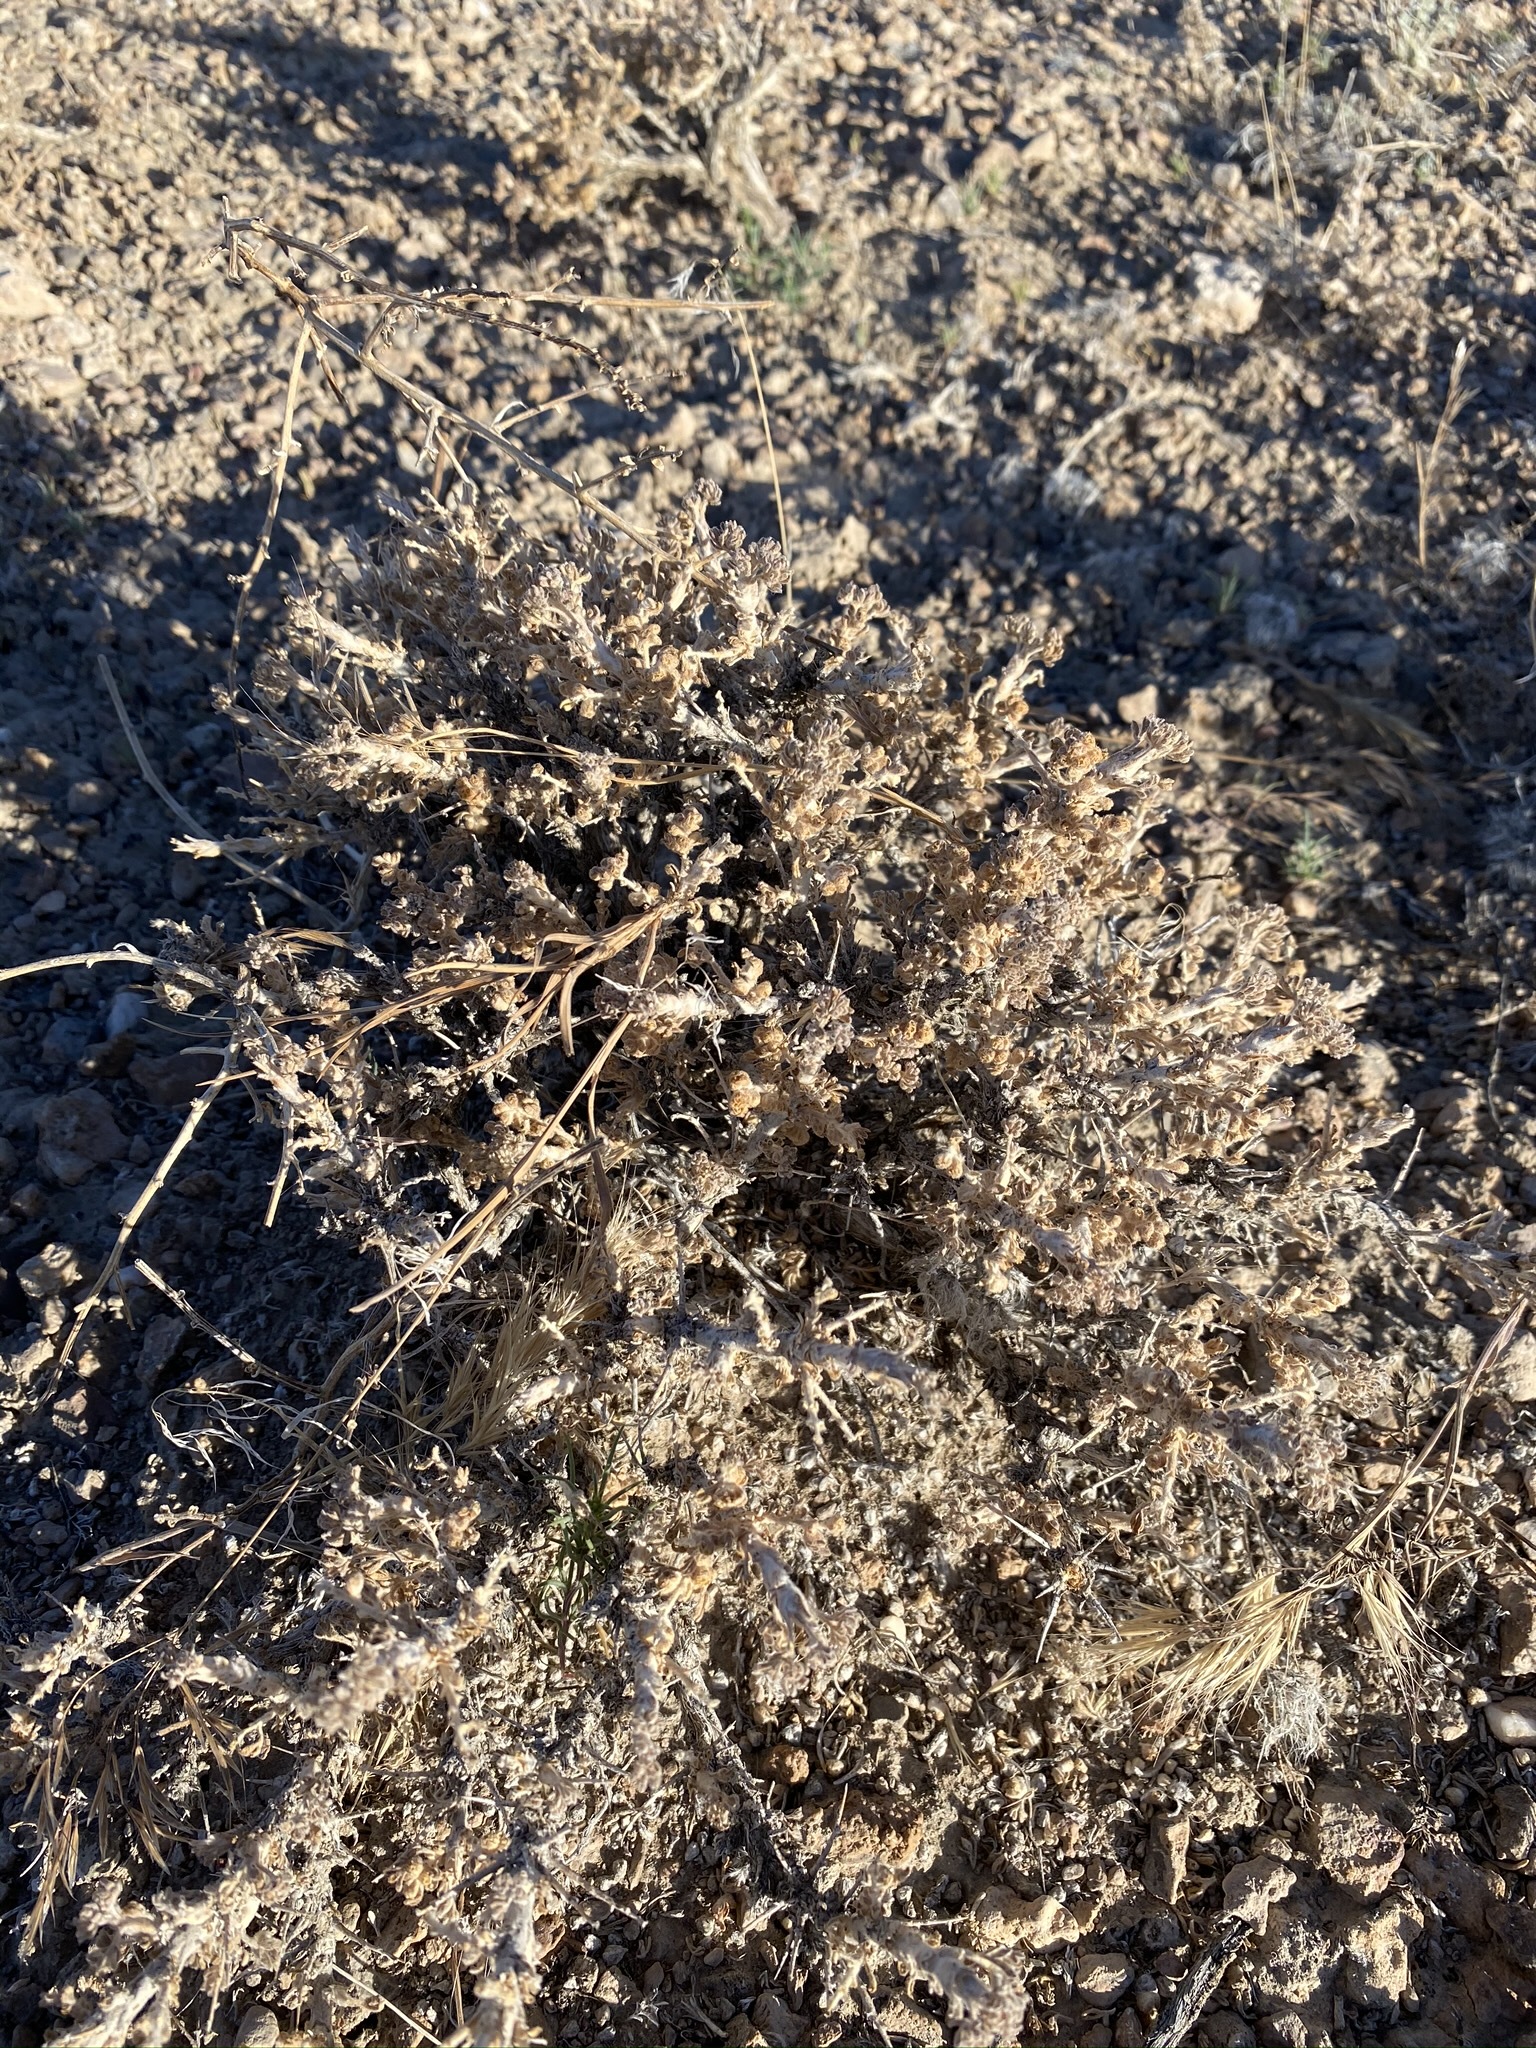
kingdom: Plantae
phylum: Tracheophyta
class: Magnoliopsida
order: Asterales
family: Asteraceae
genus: Artemisia
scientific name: Artemisia spinescens
